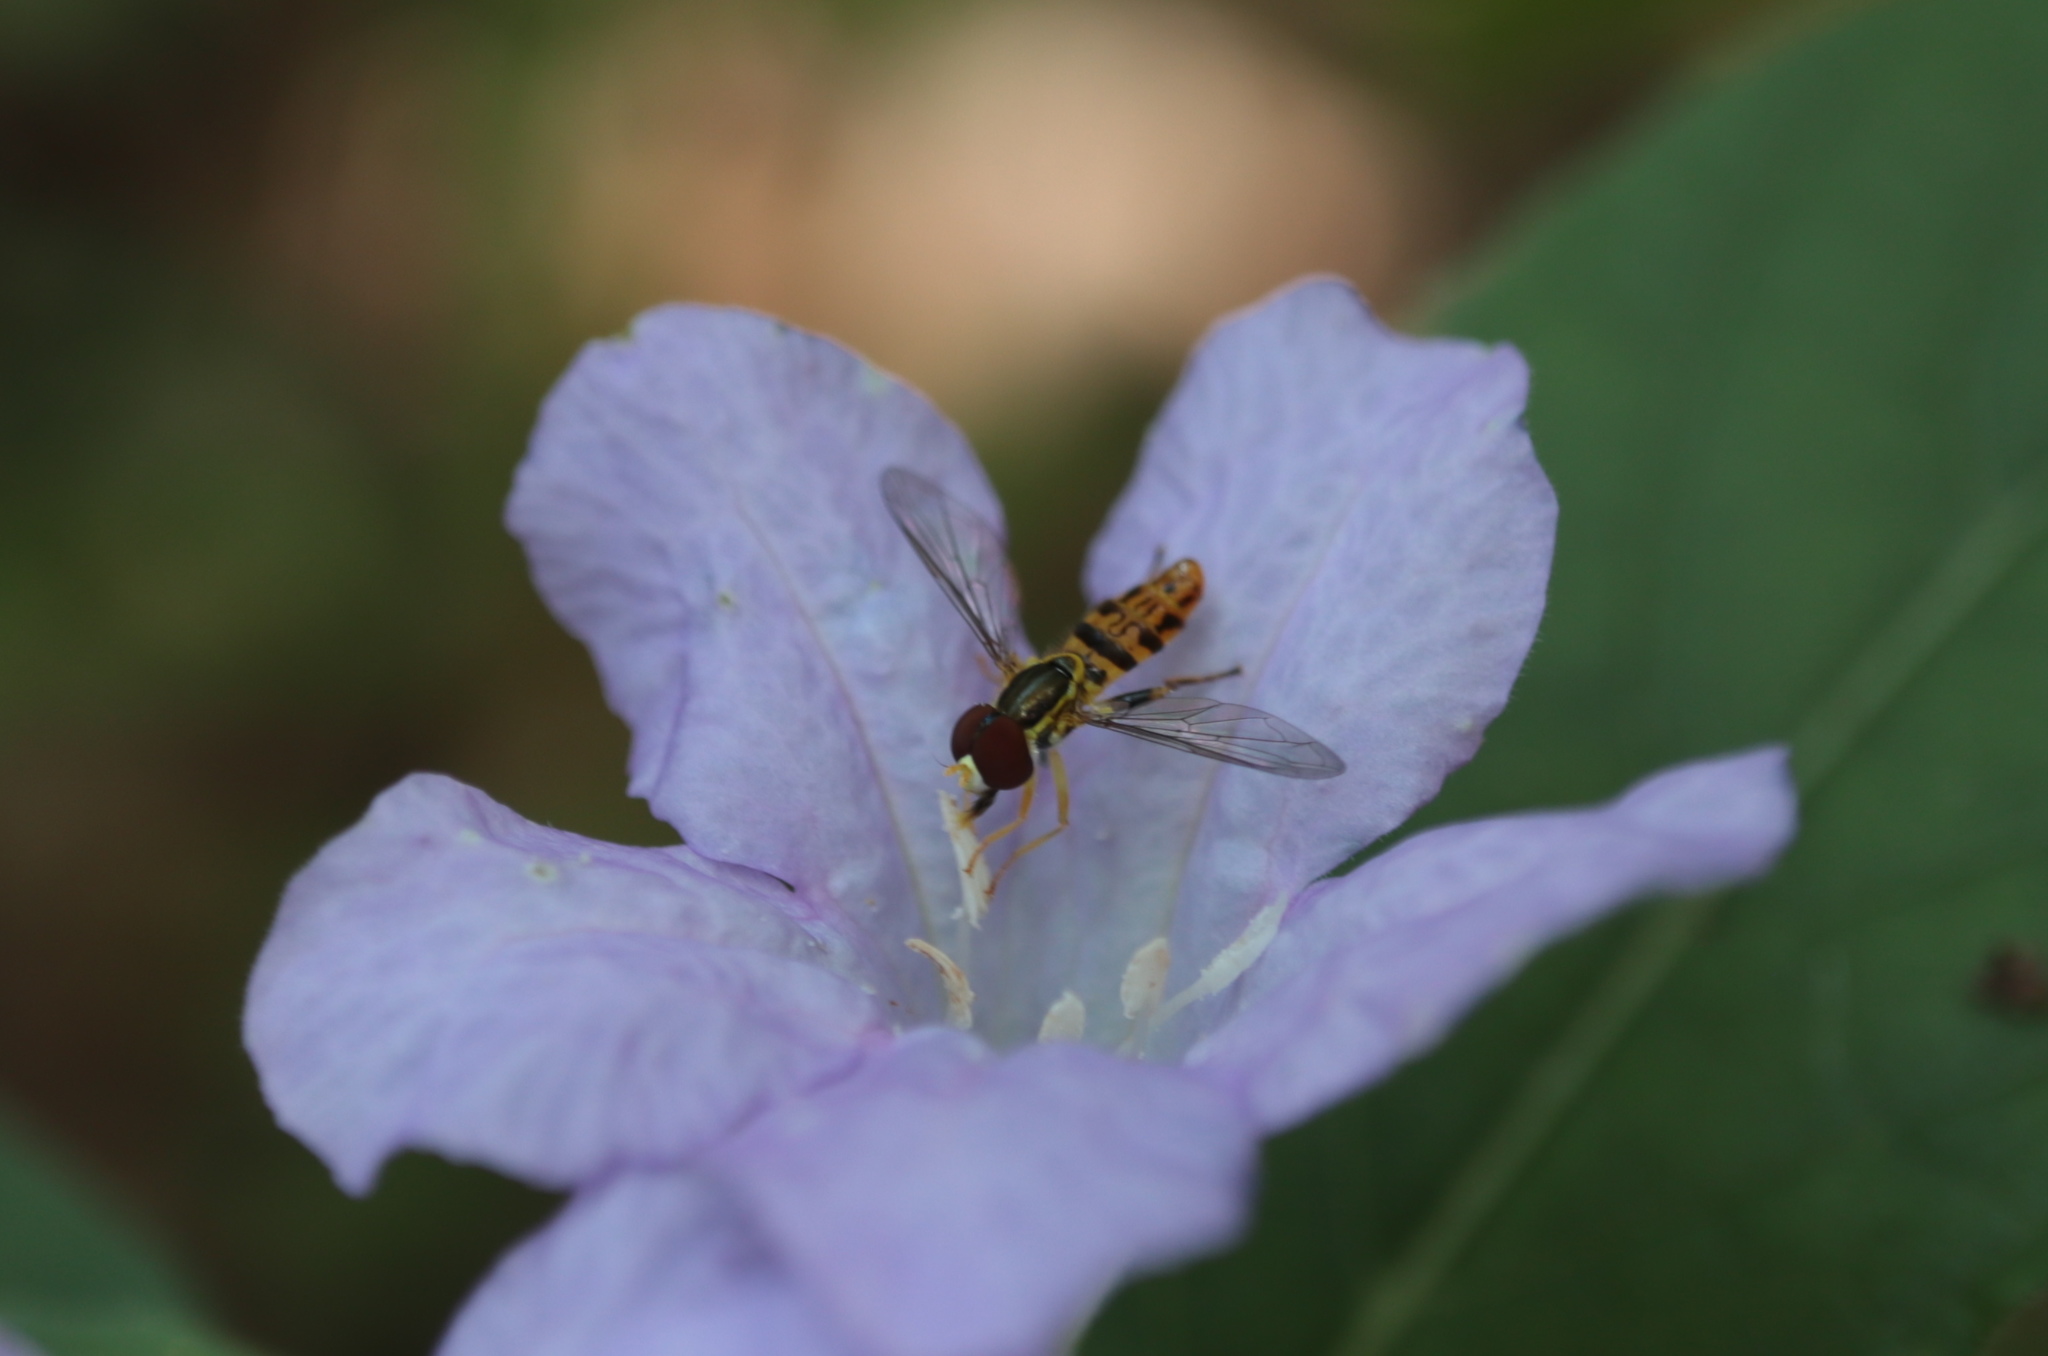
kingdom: Animalia
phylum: Arthropoda
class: Insecta
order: Diptera
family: Syrphidae
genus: Toxomerus
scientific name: Toxomerus geminatus
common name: Eastern calligrapher
